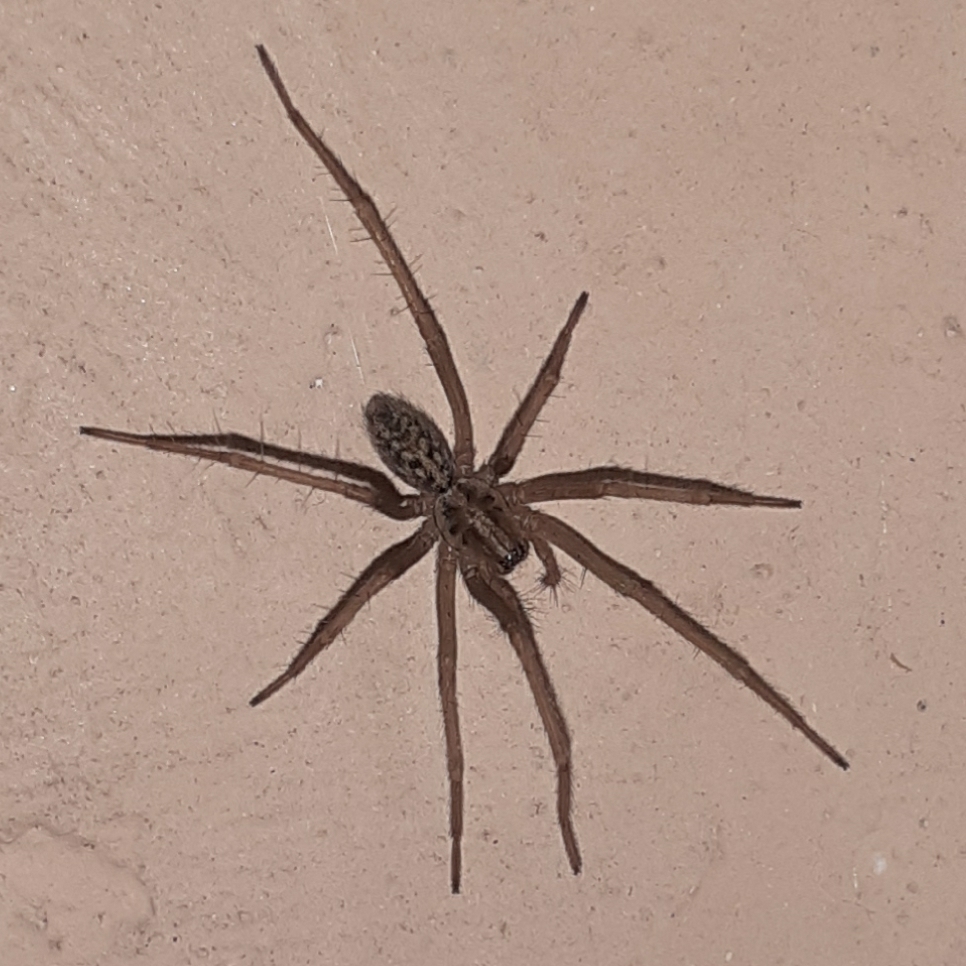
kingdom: Animalia
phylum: Arthropoda
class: Arachnida
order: Araneae
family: Agelenidae
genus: Eratigena
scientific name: Eratigena
